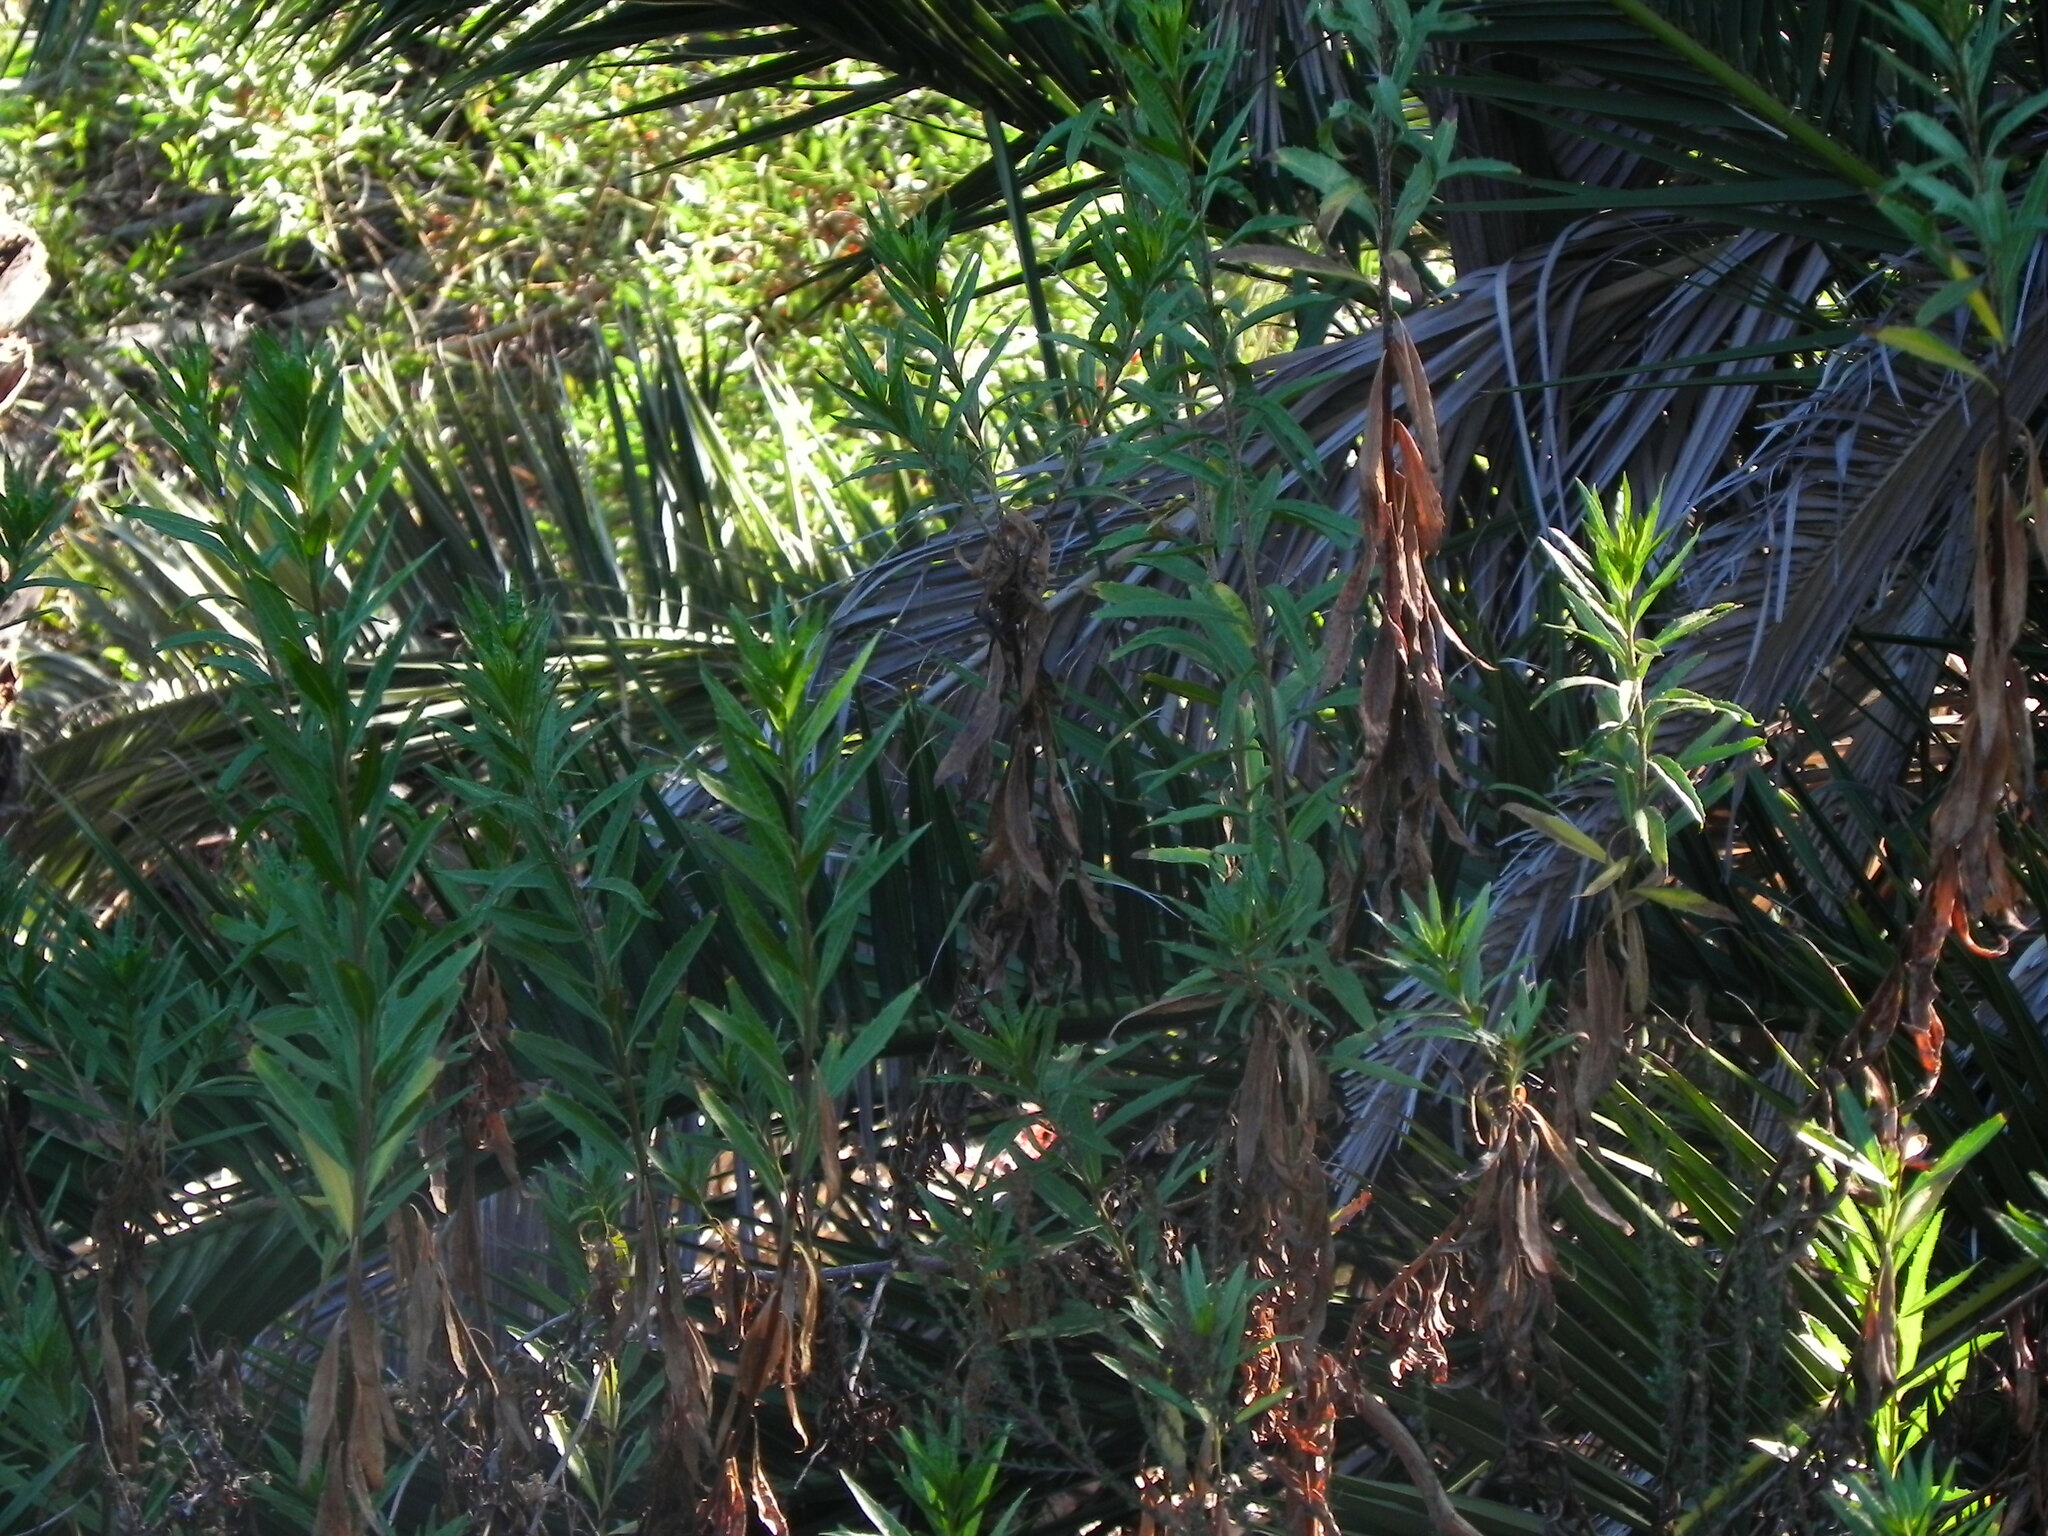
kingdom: Plantae
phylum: Tracheophyta
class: Magnoliopsida
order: Asterales
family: Asteraceae
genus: Baccharis
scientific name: Baccharis salicifolia
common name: Sticky baccharis
